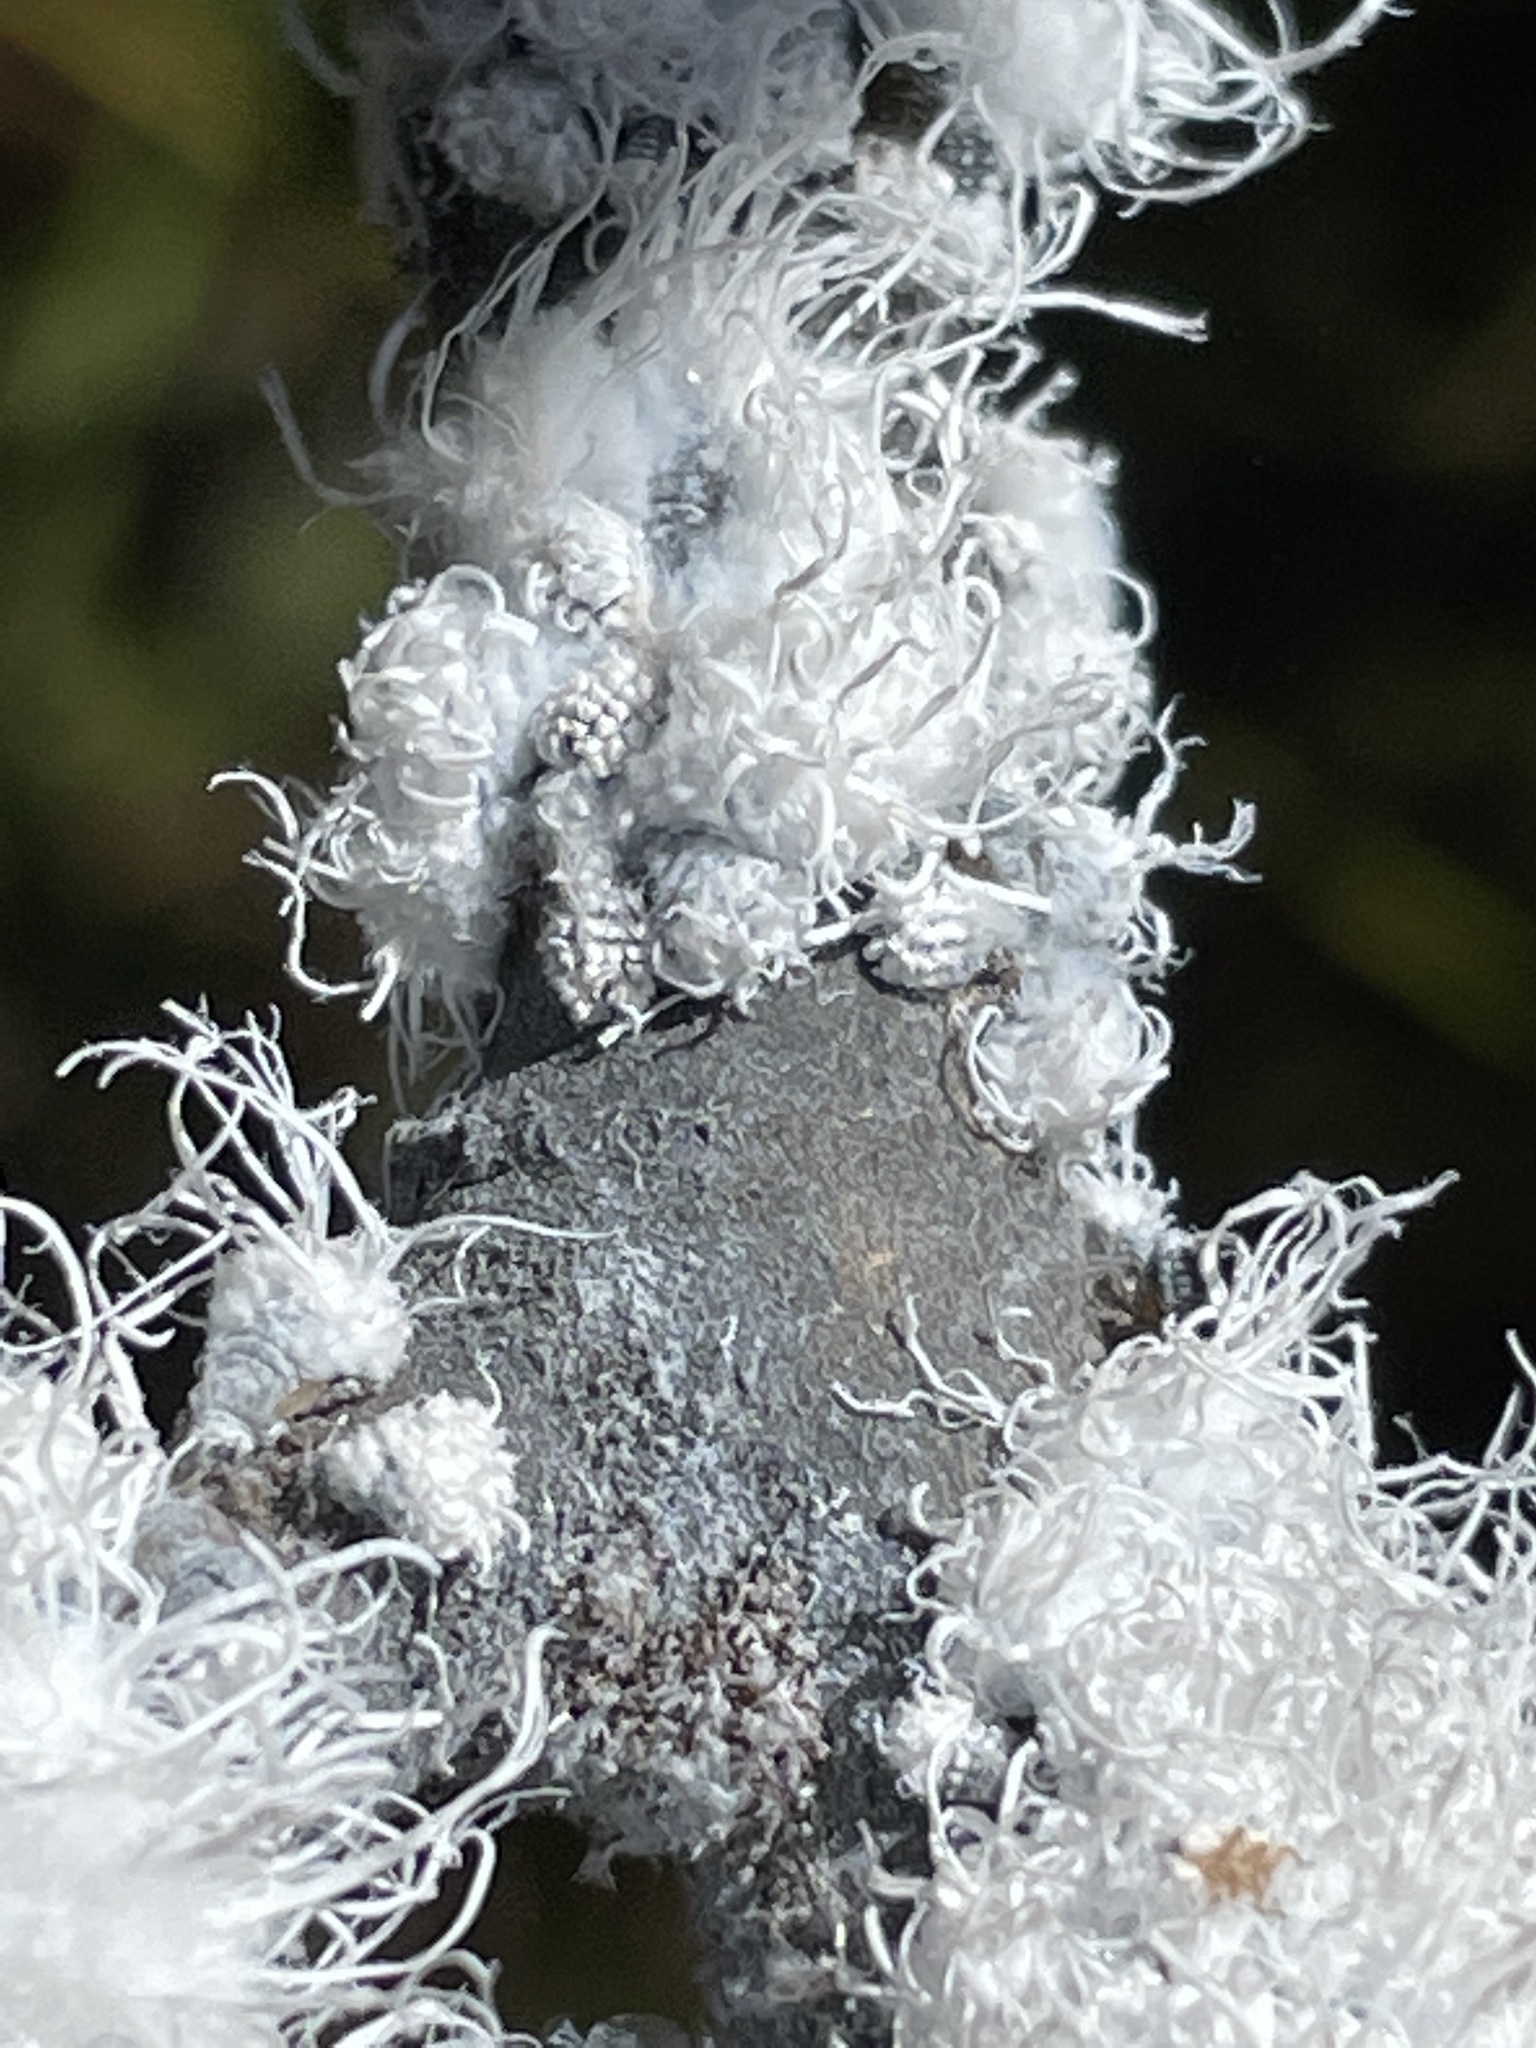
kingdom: Animalia
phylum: Arthropoda
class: Insecta
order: Hemiptera
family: Aphididae
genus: Prociphilus
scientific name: Prociphilus tessellatus
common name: Woolly alder aphid
